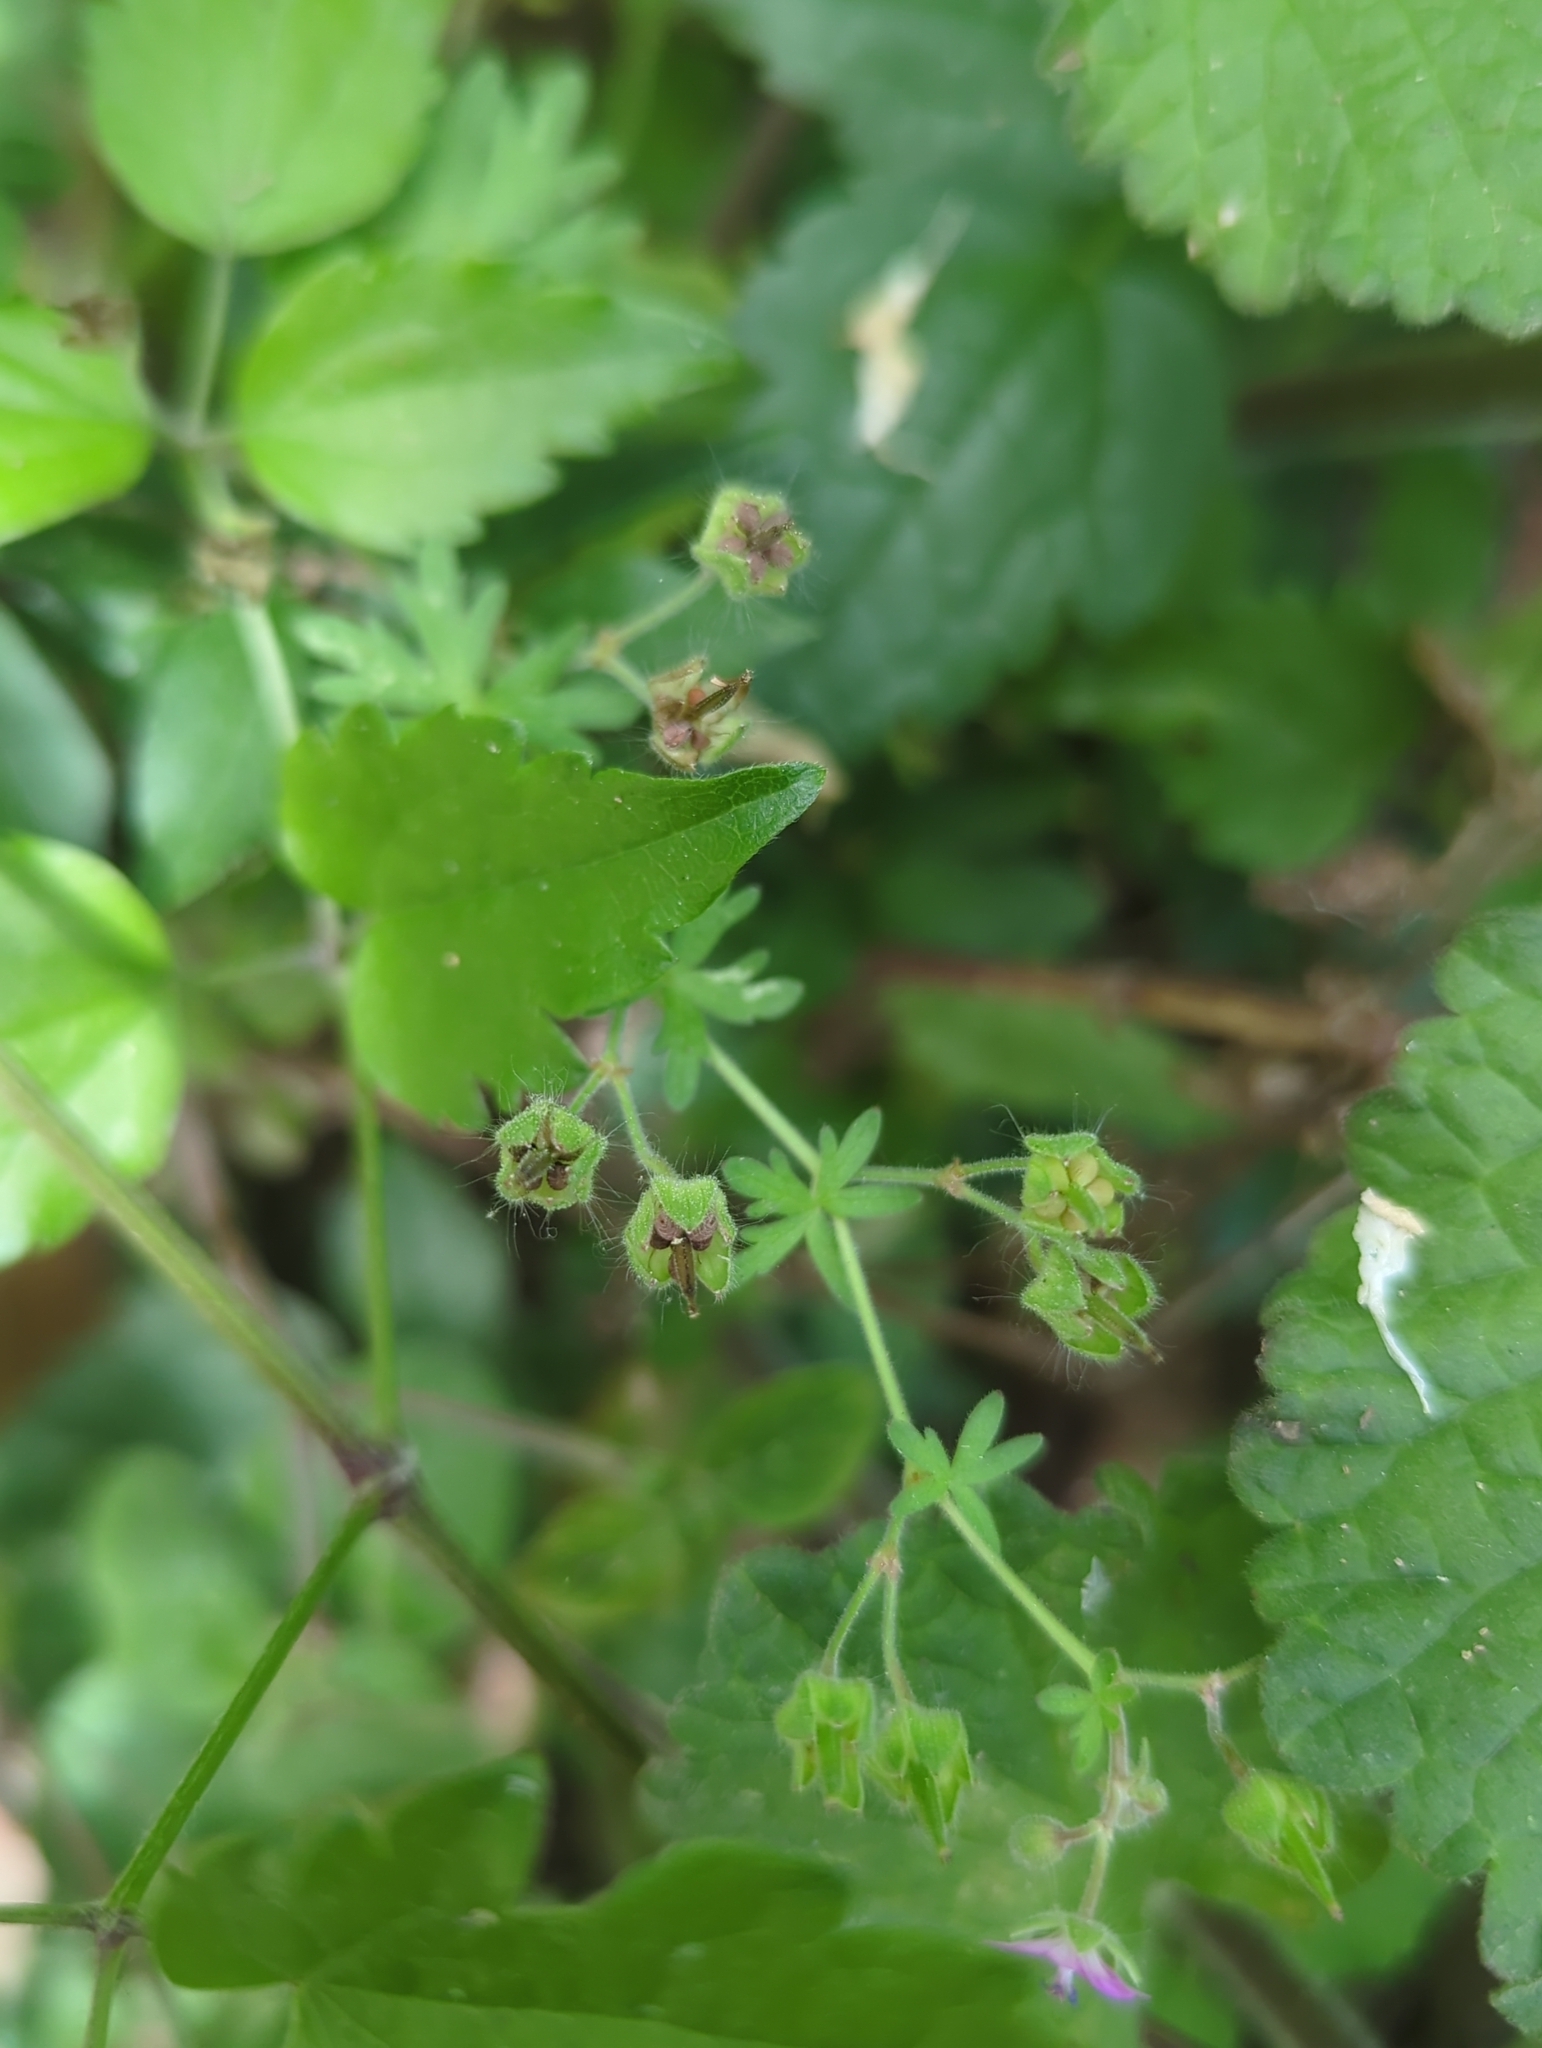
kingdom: Plantae
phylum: Tracheophyta
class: Magnoliopsida
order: Geraniales
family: Geraniaceae
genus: Geranium
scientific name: Geranium molle
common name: Dove's-foot crane's-bill
